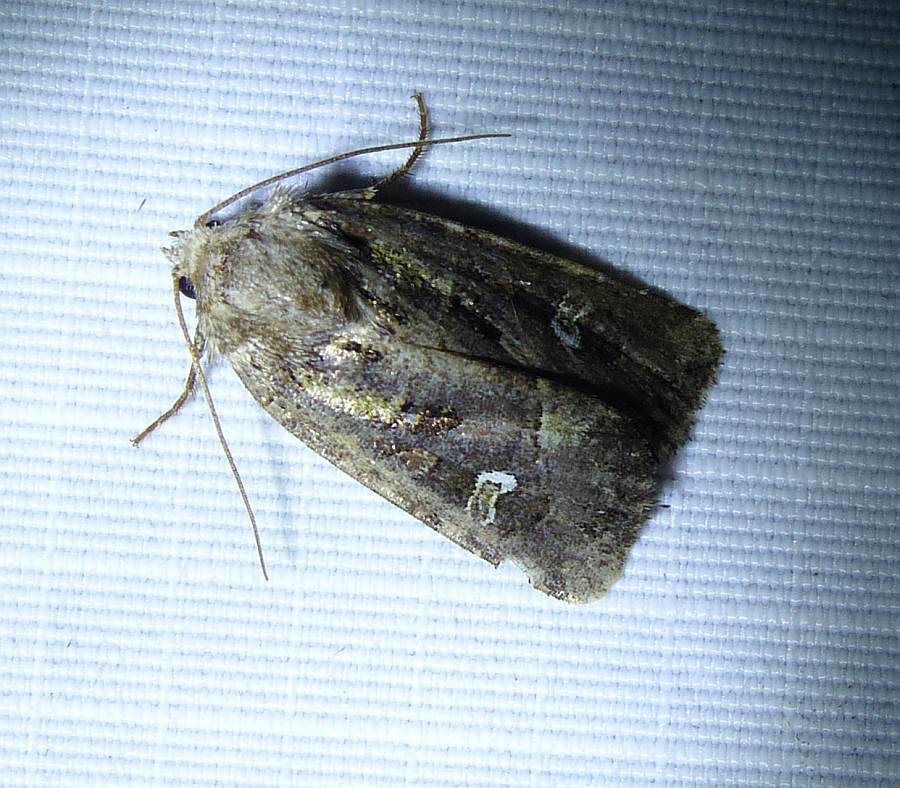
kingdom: Animalia
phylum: Arthropoda
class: Insecta
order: Lepidoptera
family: Noctuidae
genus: Lacinipolia
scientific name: Lacinipolia renigera
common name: Kidney-spotted minor
